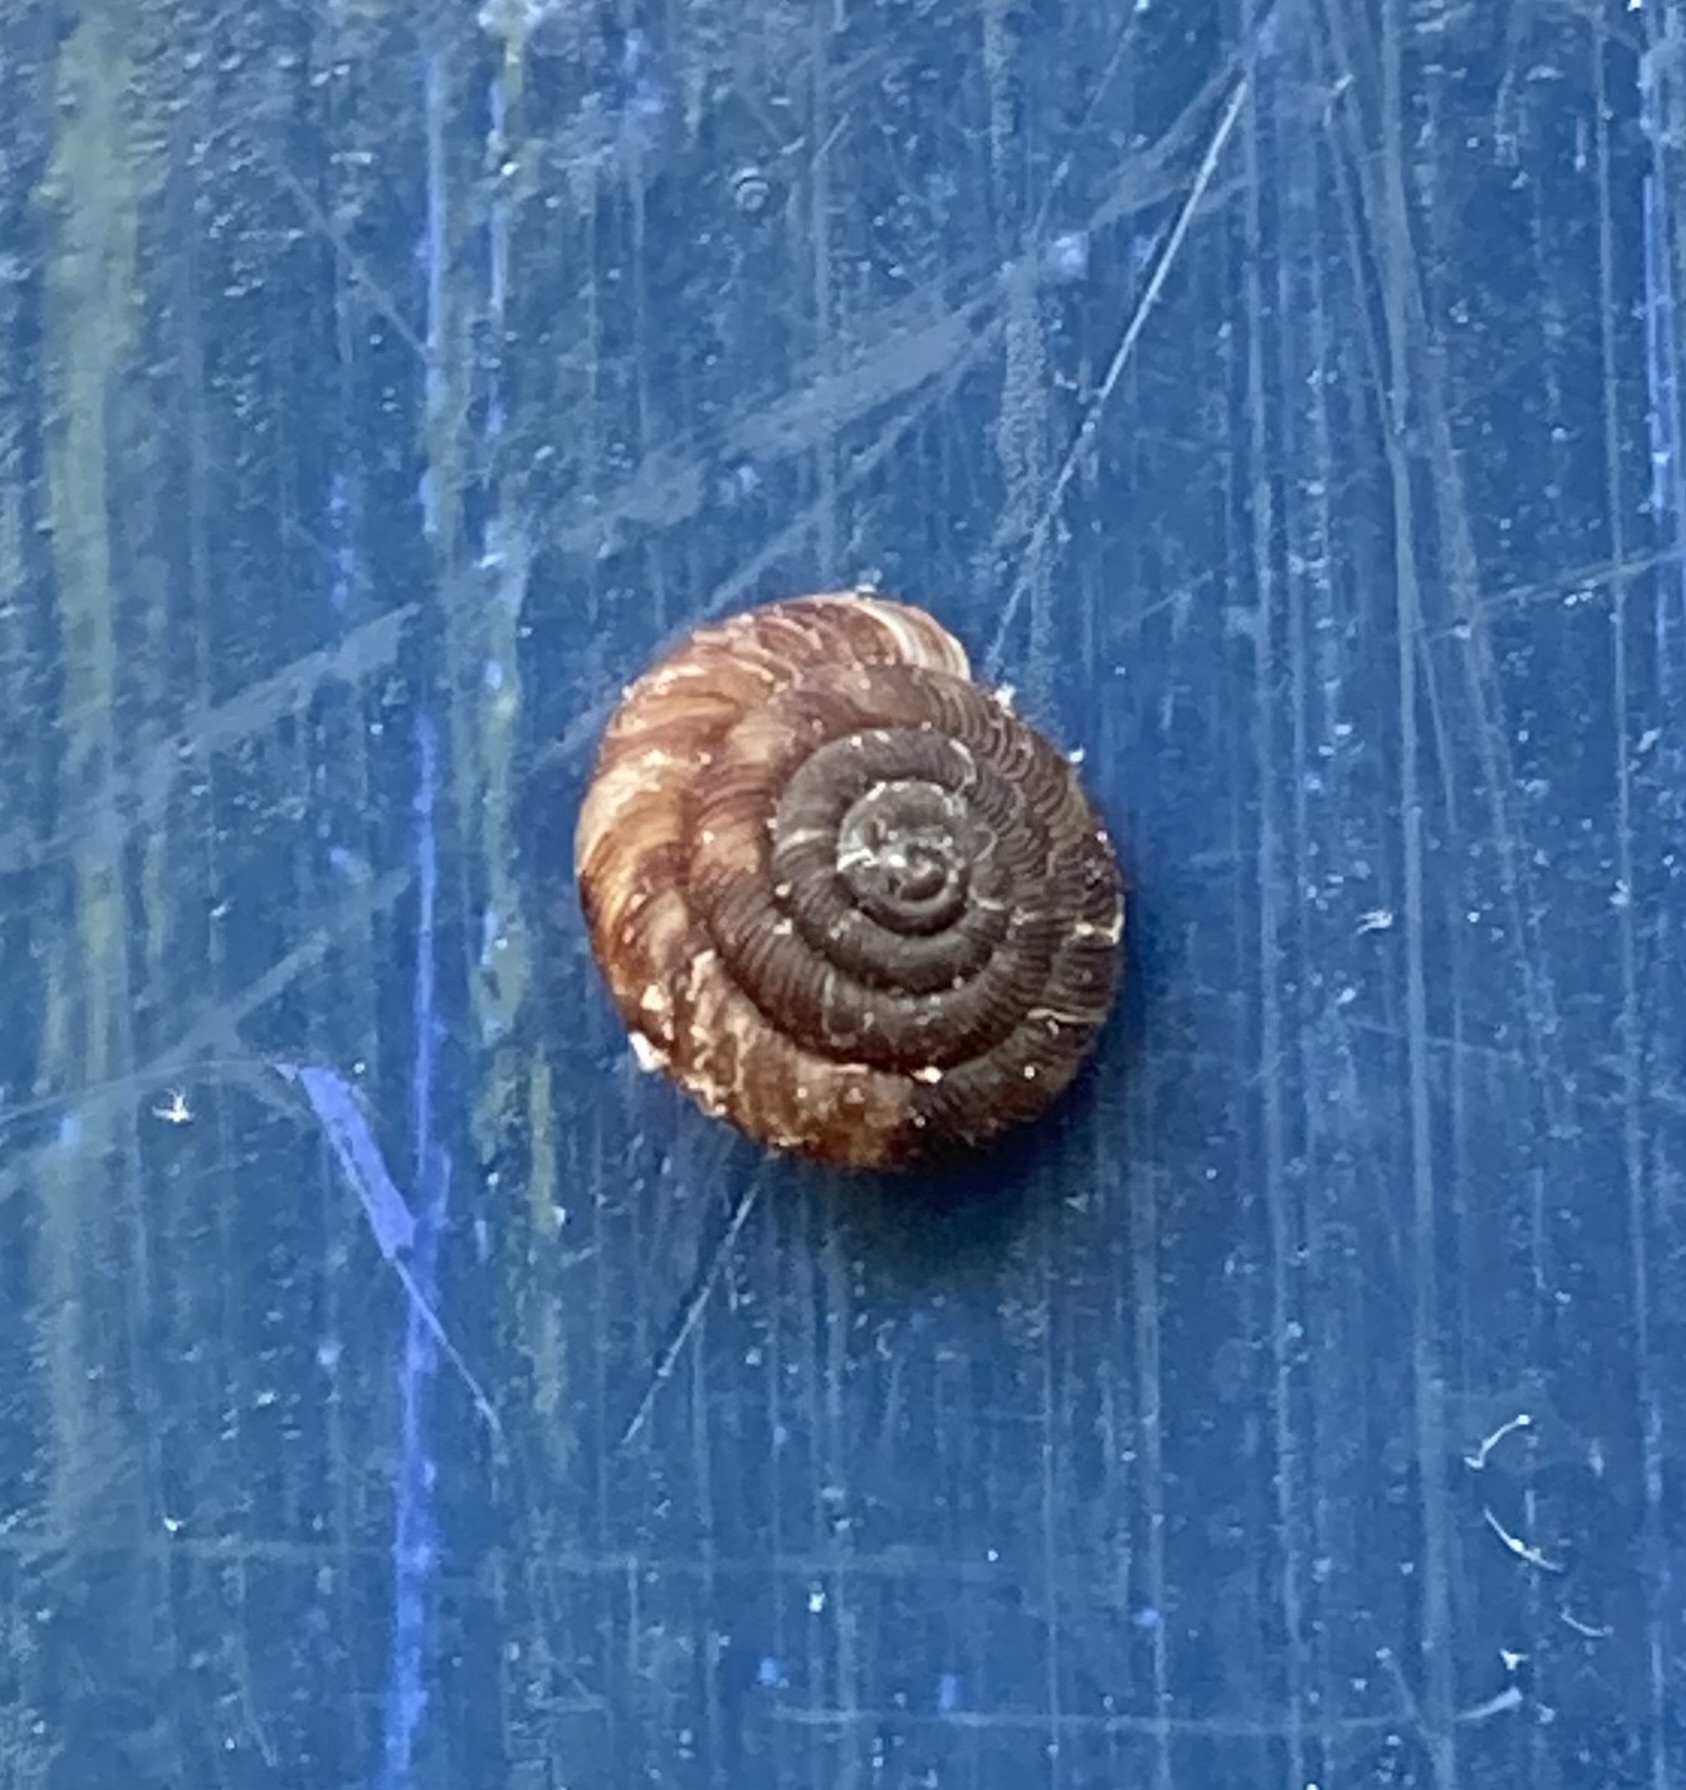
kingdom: Animalia
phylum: Mollusca
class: Gastropoda
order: Stylommatophora
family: Discidae
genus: Discus
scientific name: Discus rotundatus
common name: Rounded snail
